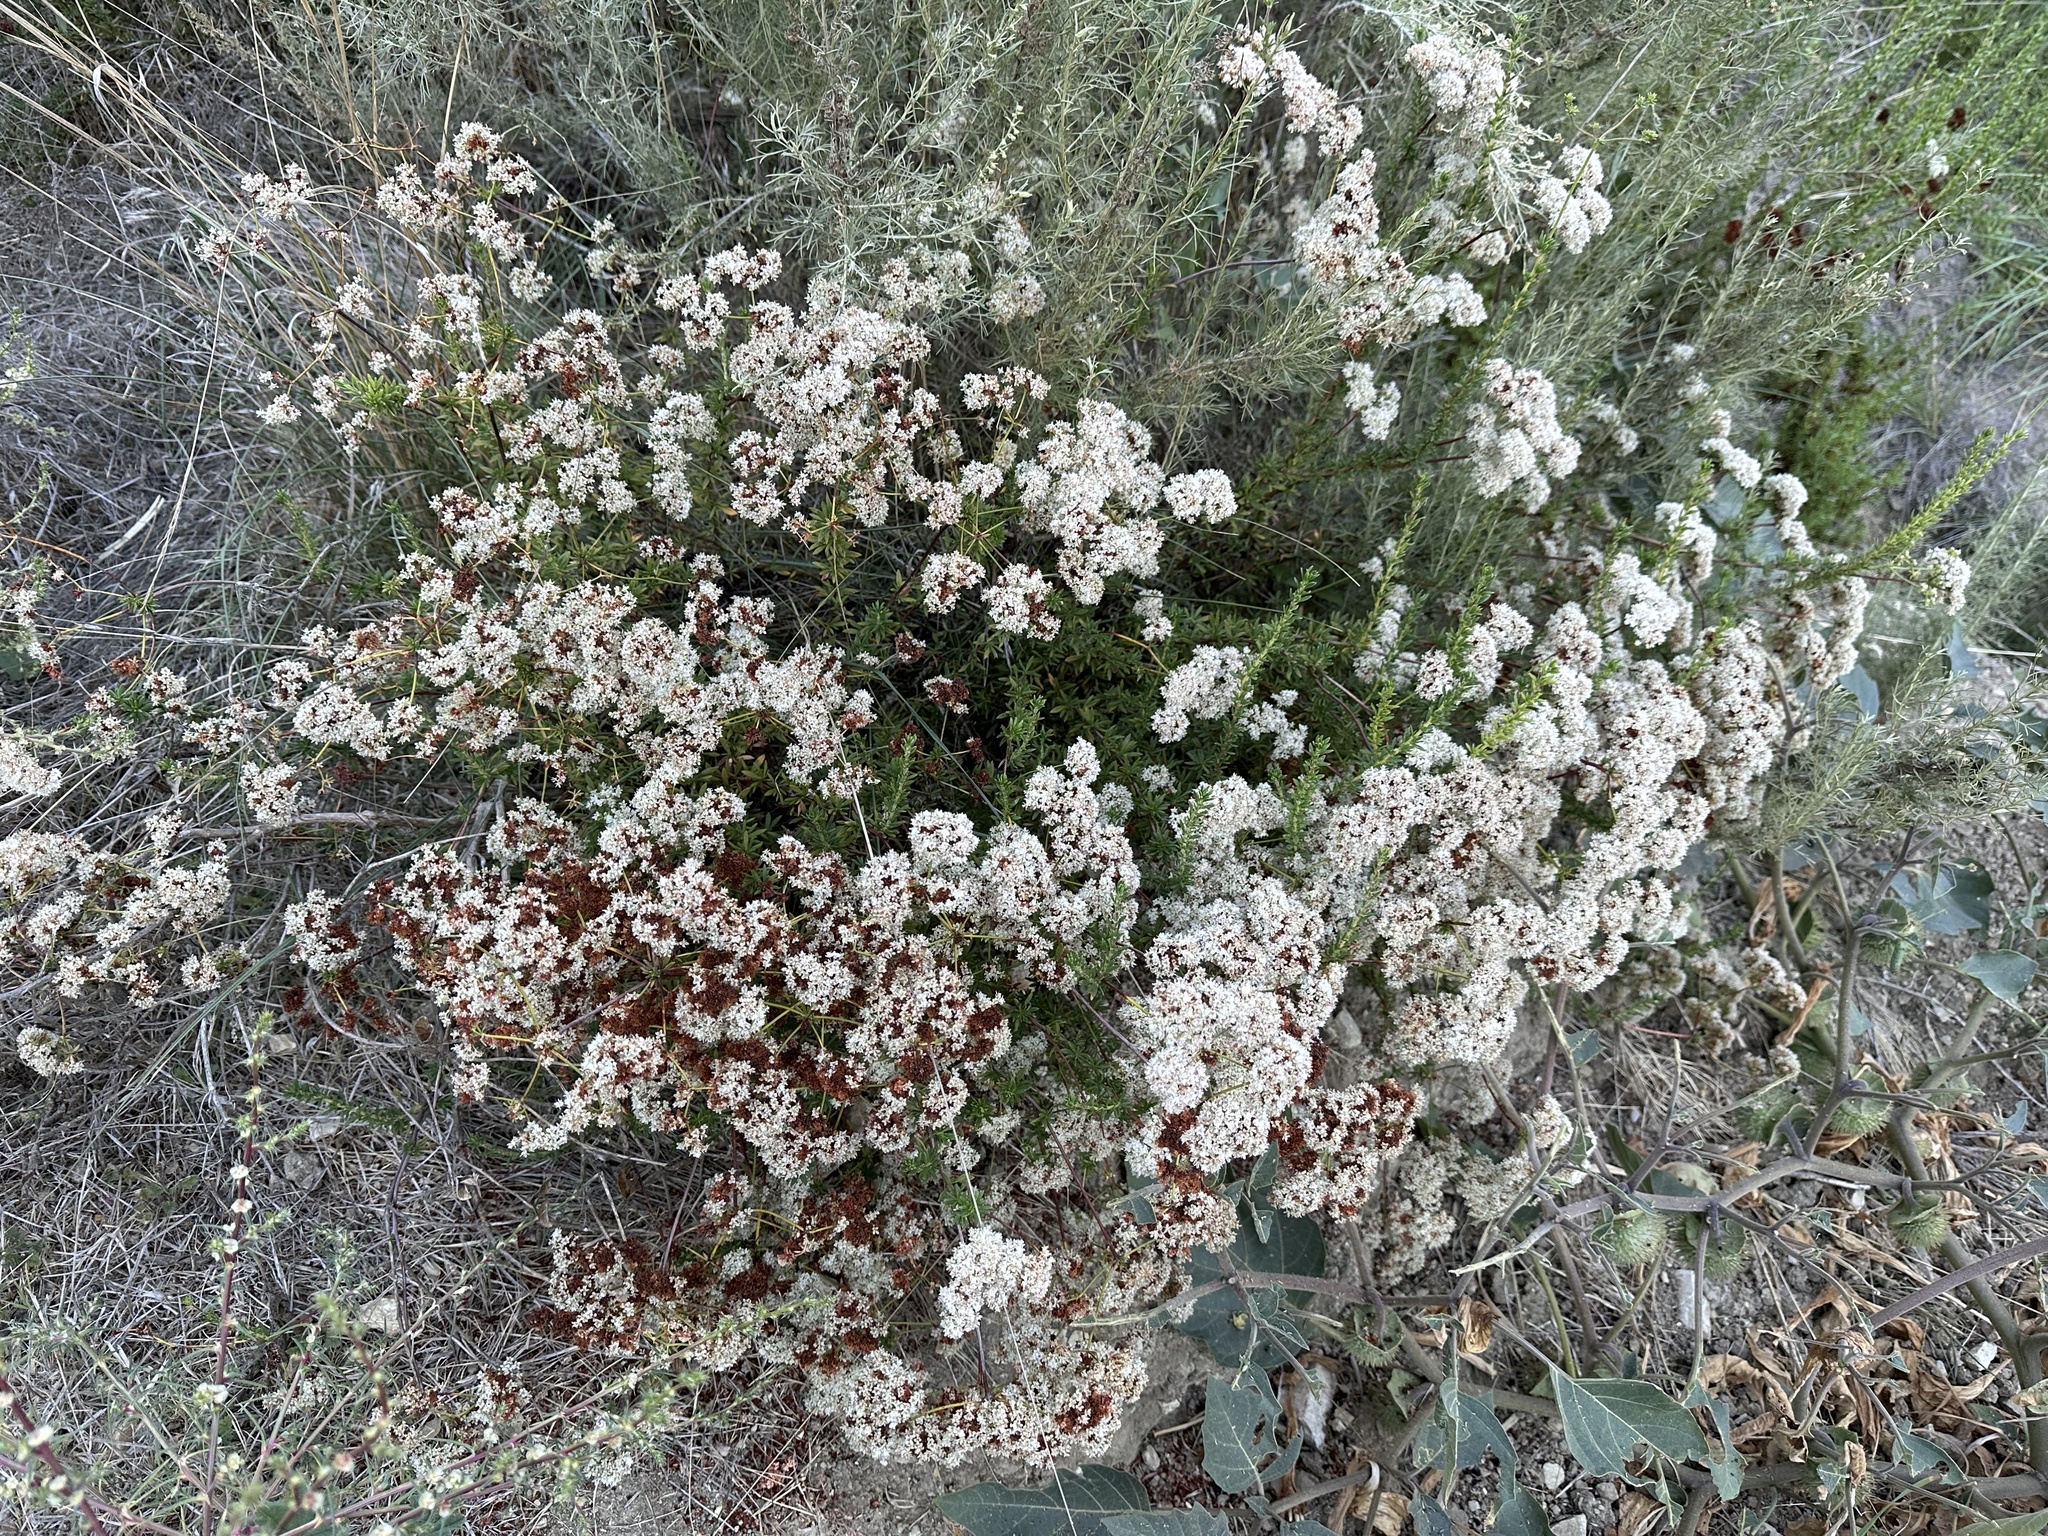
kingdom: Plantae
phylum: Tracheophyta
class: Magnoliopsida
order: Caryophyllales
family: Polygonaceae
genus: Eriogonum
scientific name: Eriogonum fasciculatum
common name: California wild buckwheat
